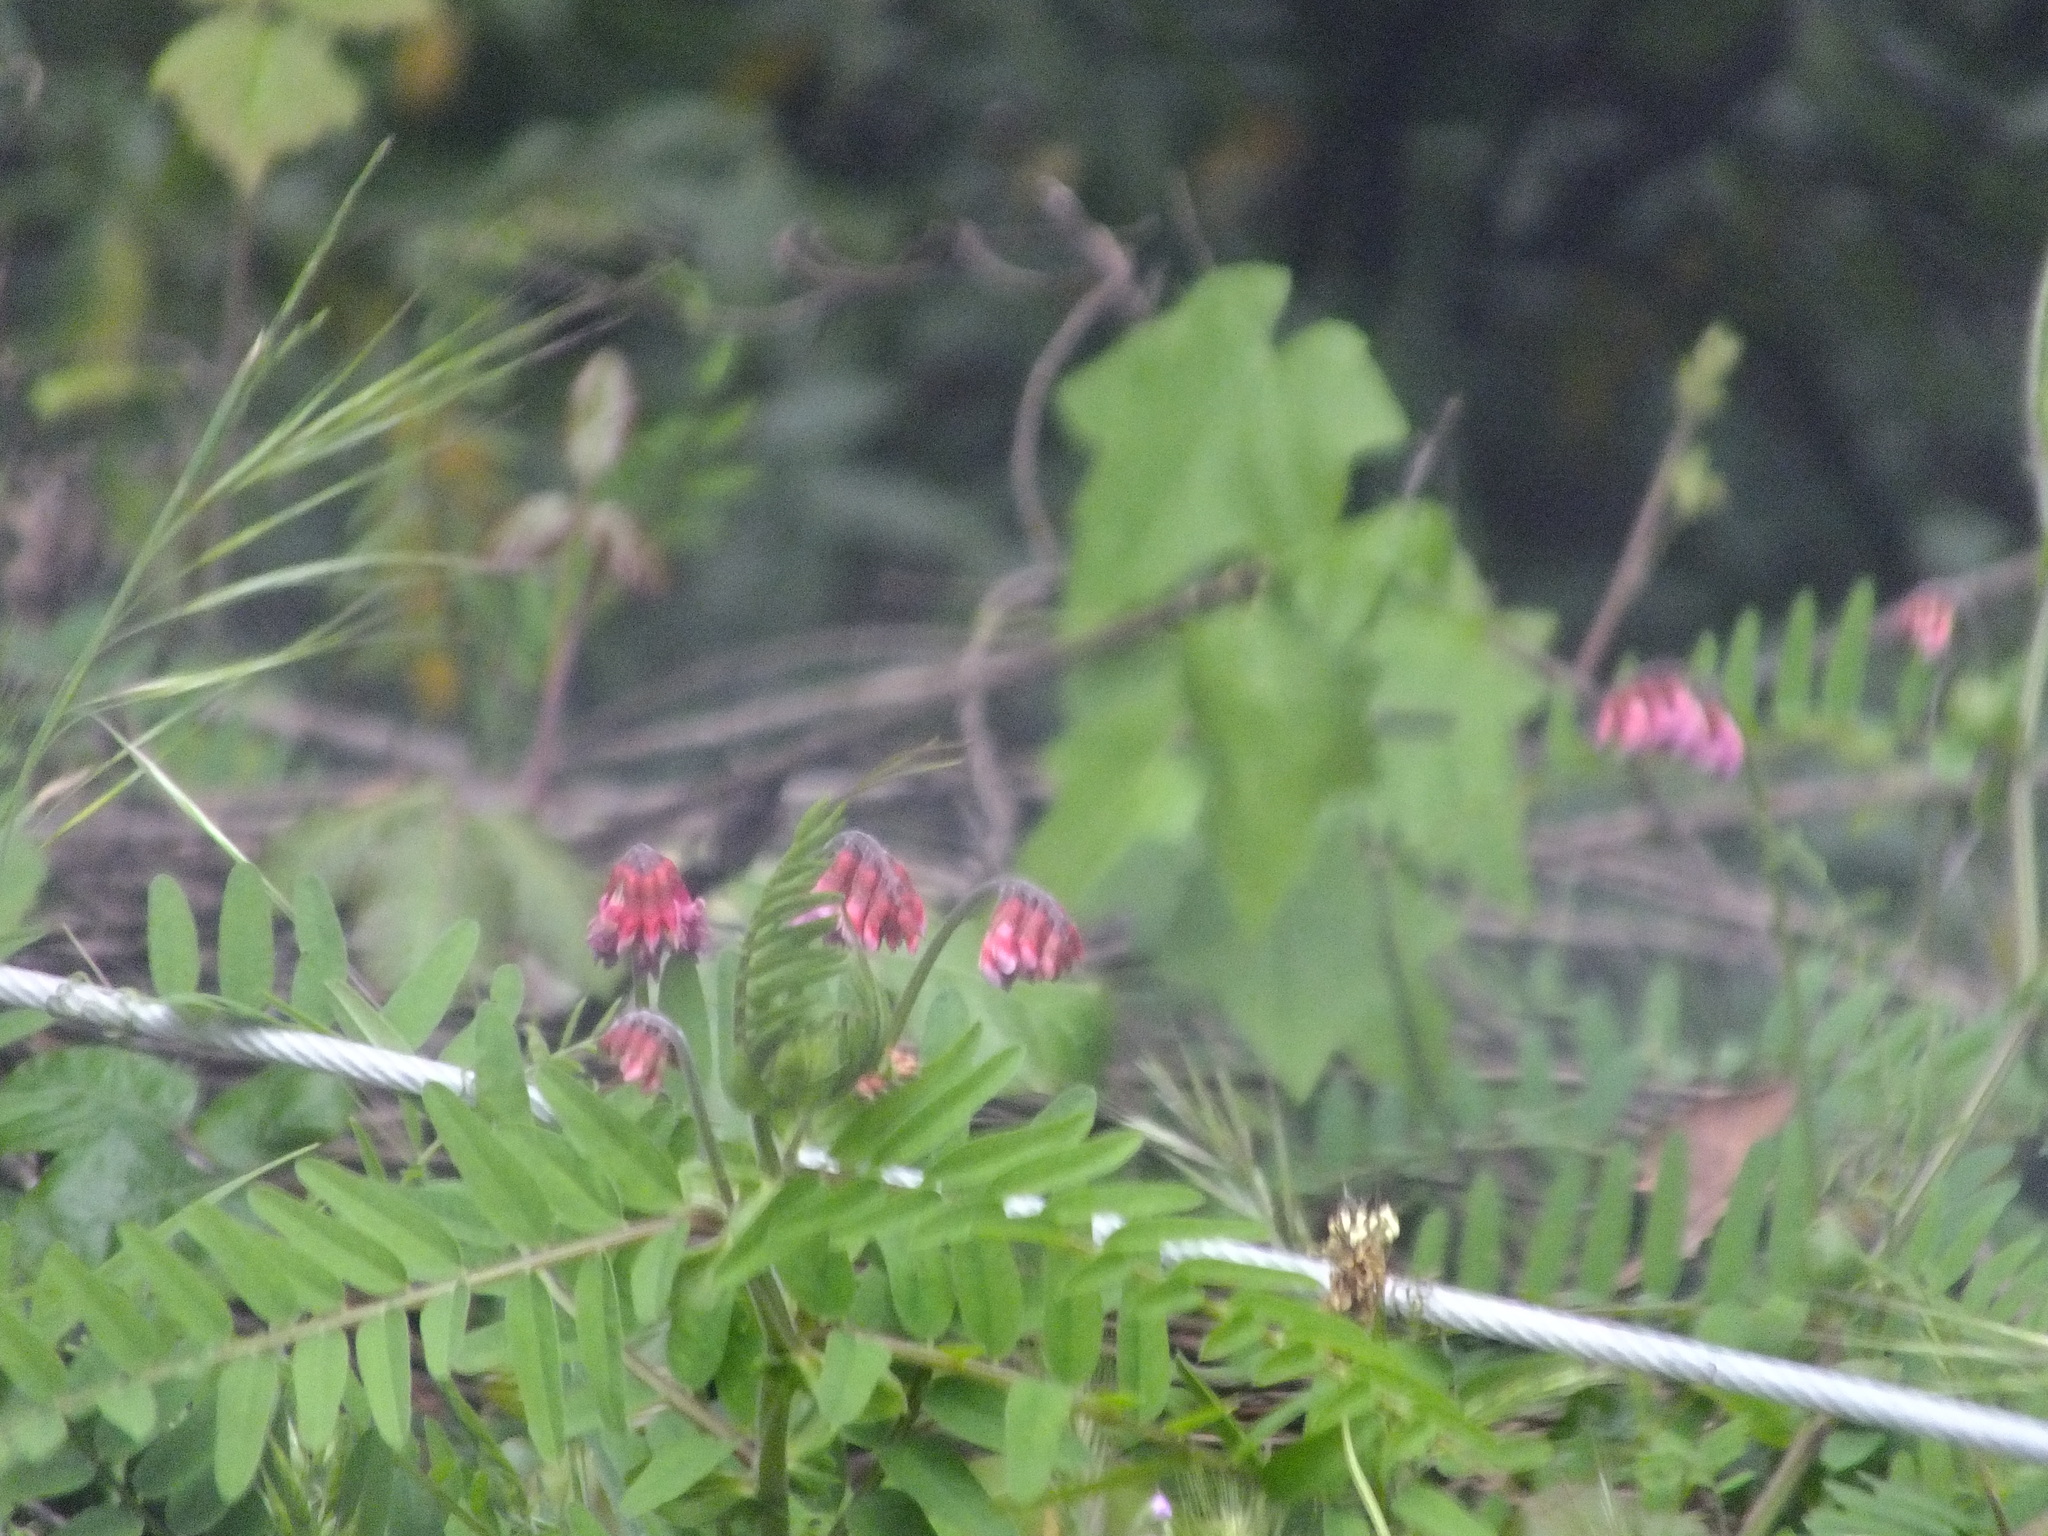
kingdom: Plantae
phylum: Tracheophyta
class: Magnoliopsida
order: Fabales
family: Fabaceae
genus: Vicia
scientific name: Vicia
